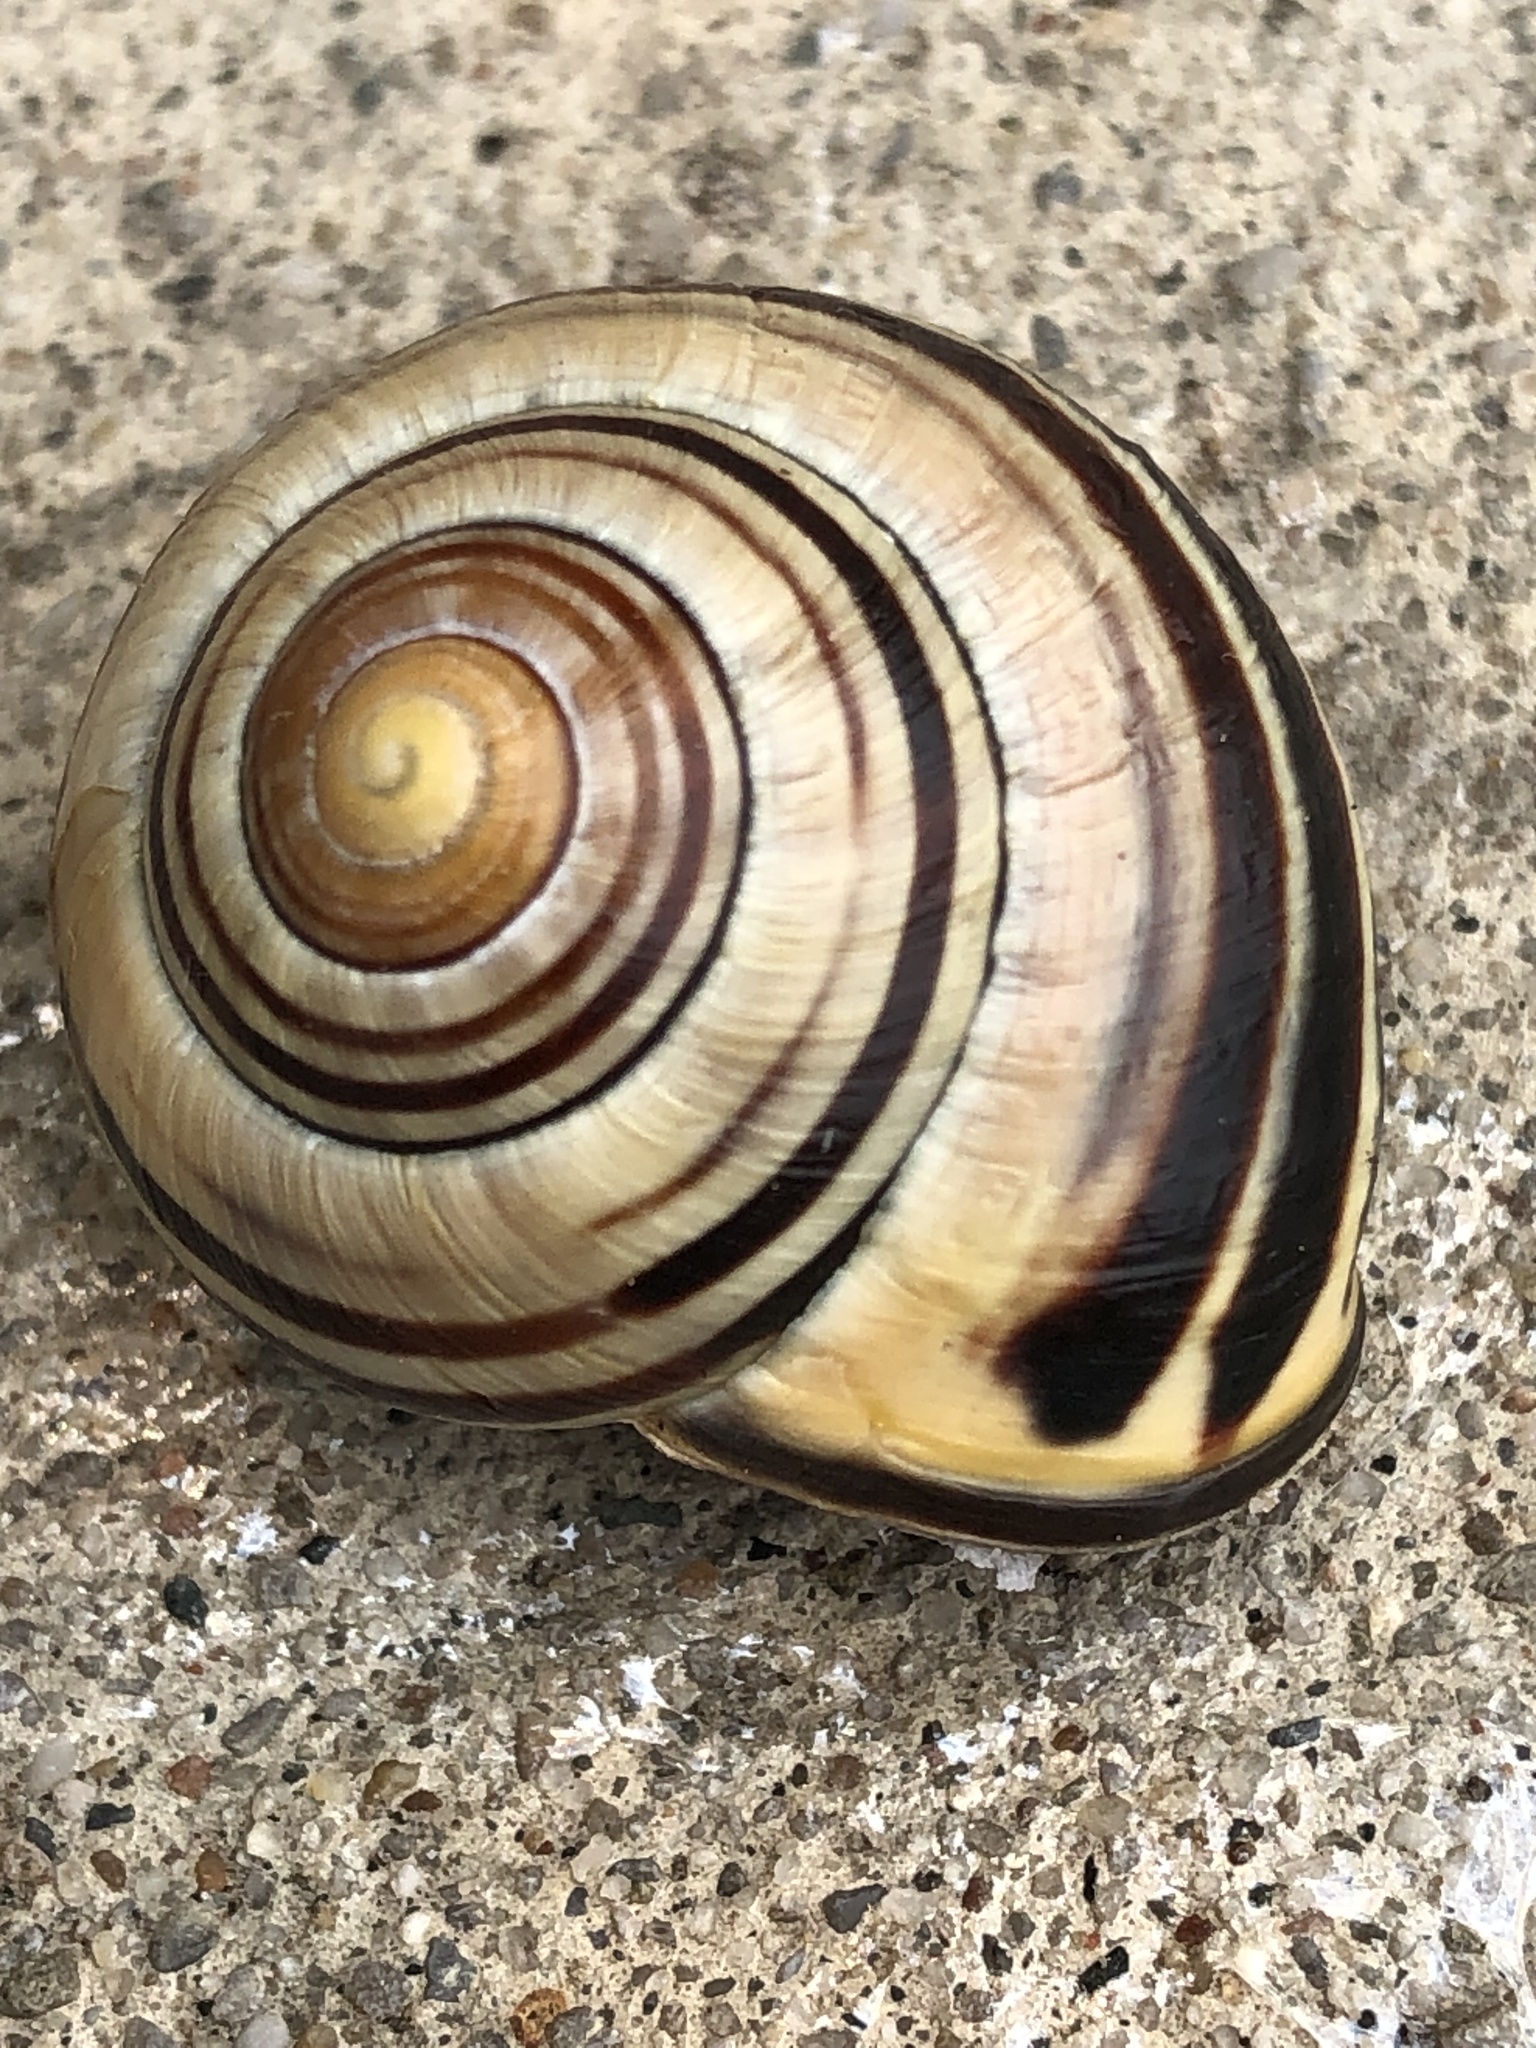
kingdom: Animalia
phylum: Mollusca
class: Gastropoda
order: Stylommatophora
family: Helicidae
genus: Cepaea
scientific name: Cepaea nemoralis
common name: Grovesnail
